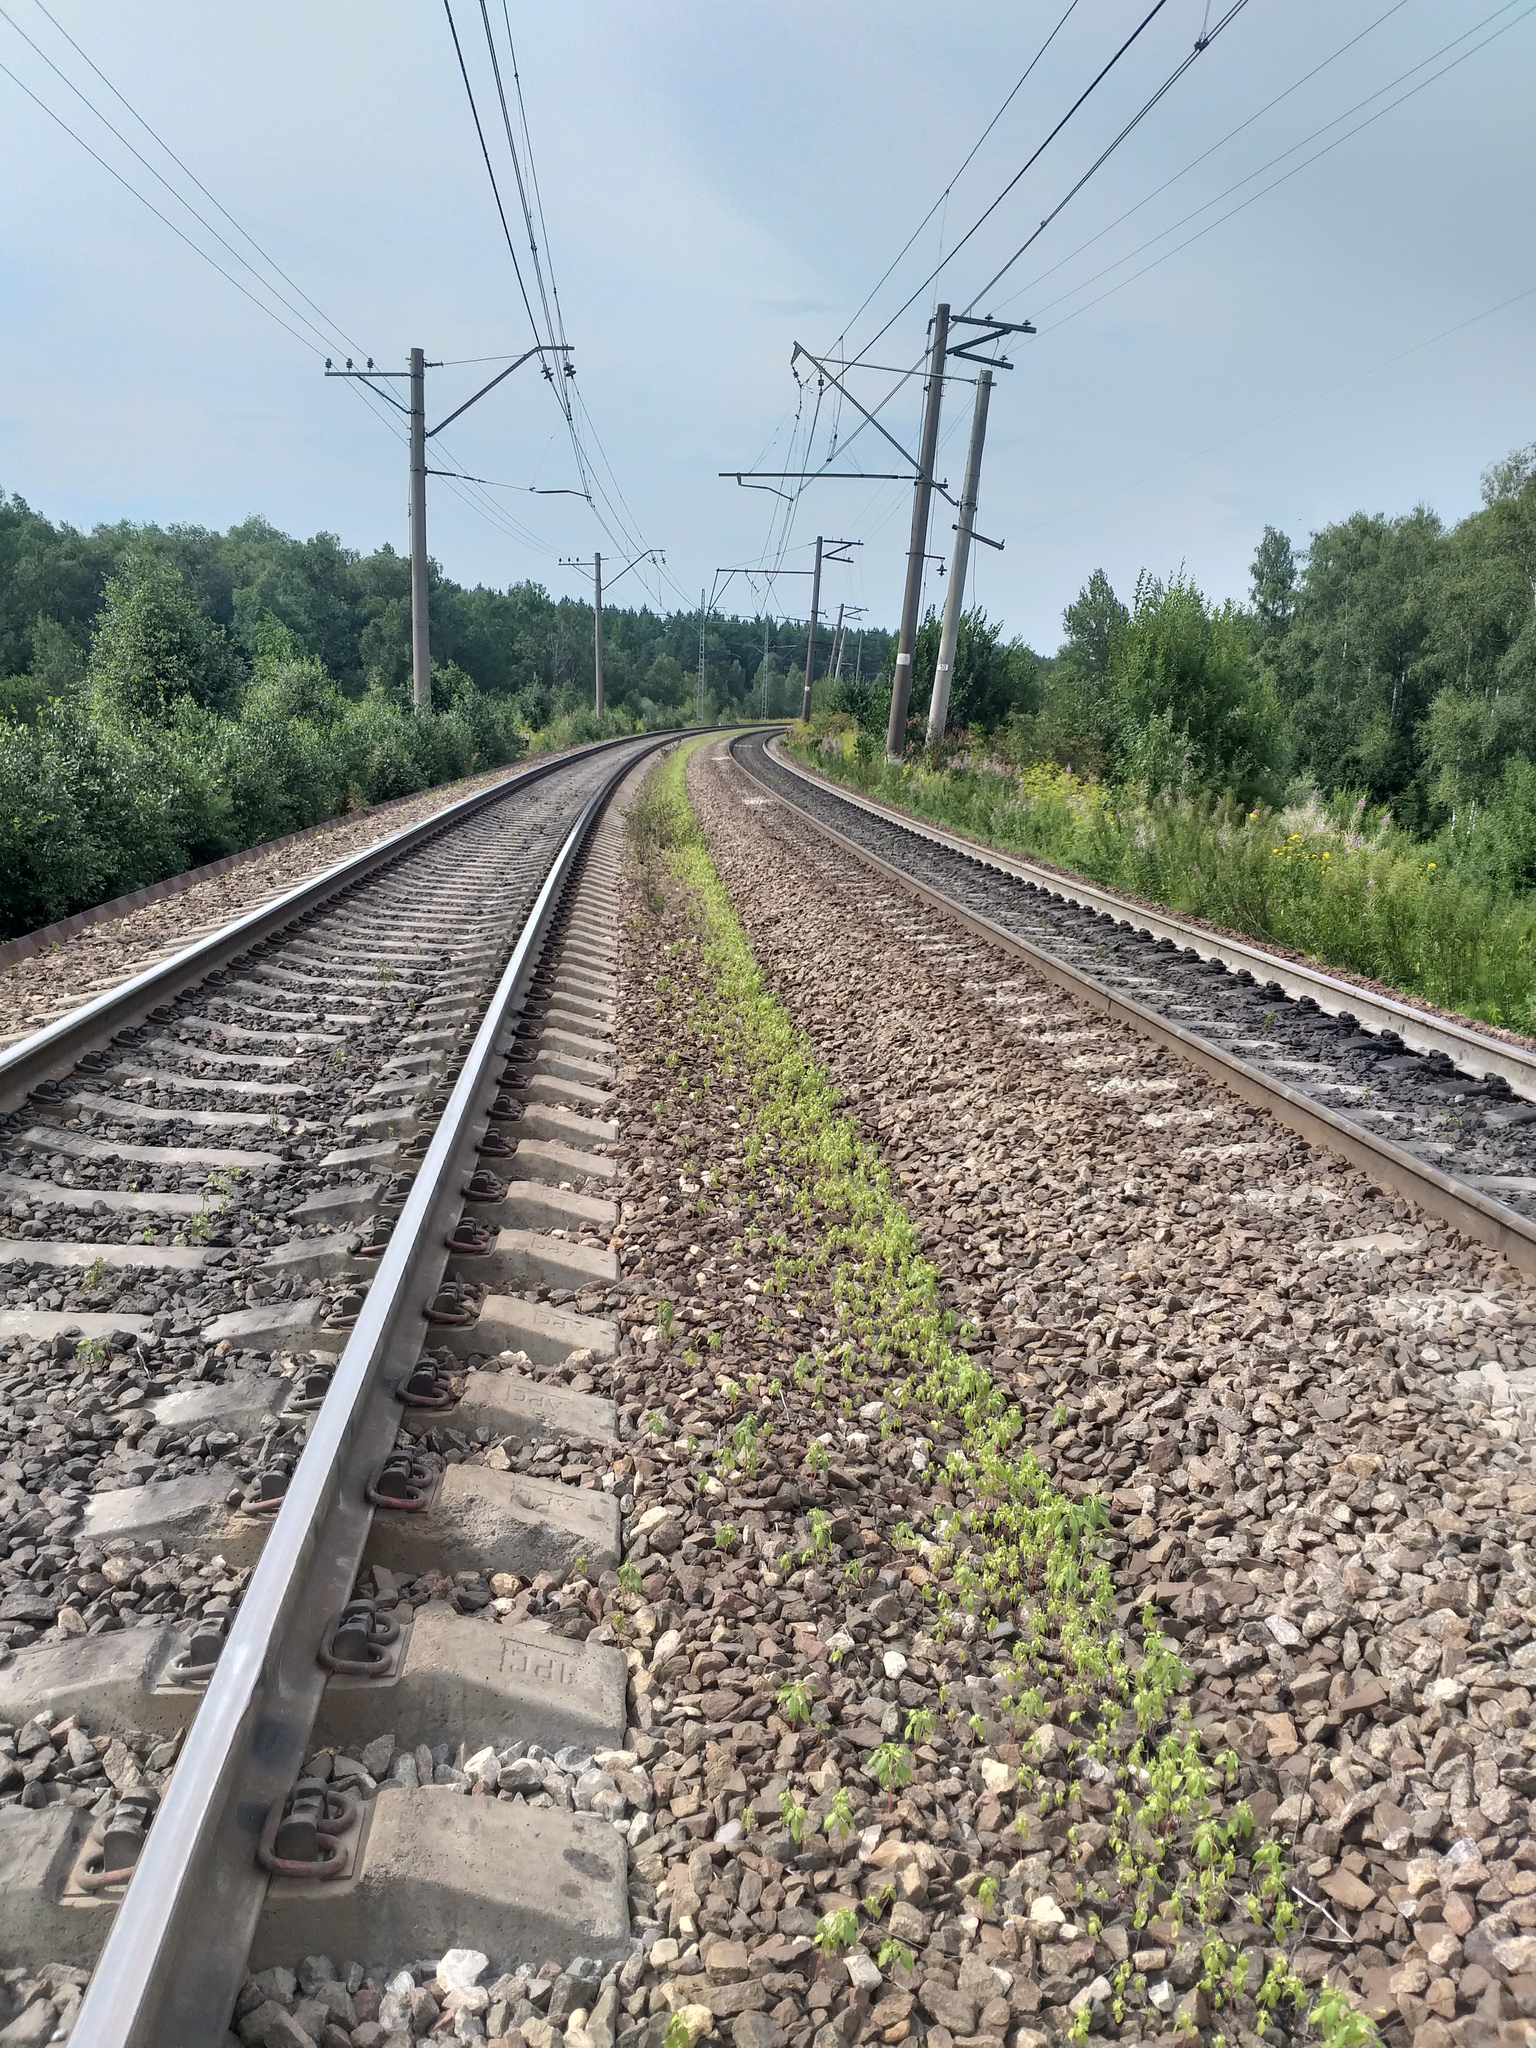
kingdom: Plantae
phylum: Tracheophyta
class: Magnoliopsida
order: Ericales
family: Balsaminaceae
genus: Impatiens
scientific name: Impatiens parviflora
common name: Small balsam
